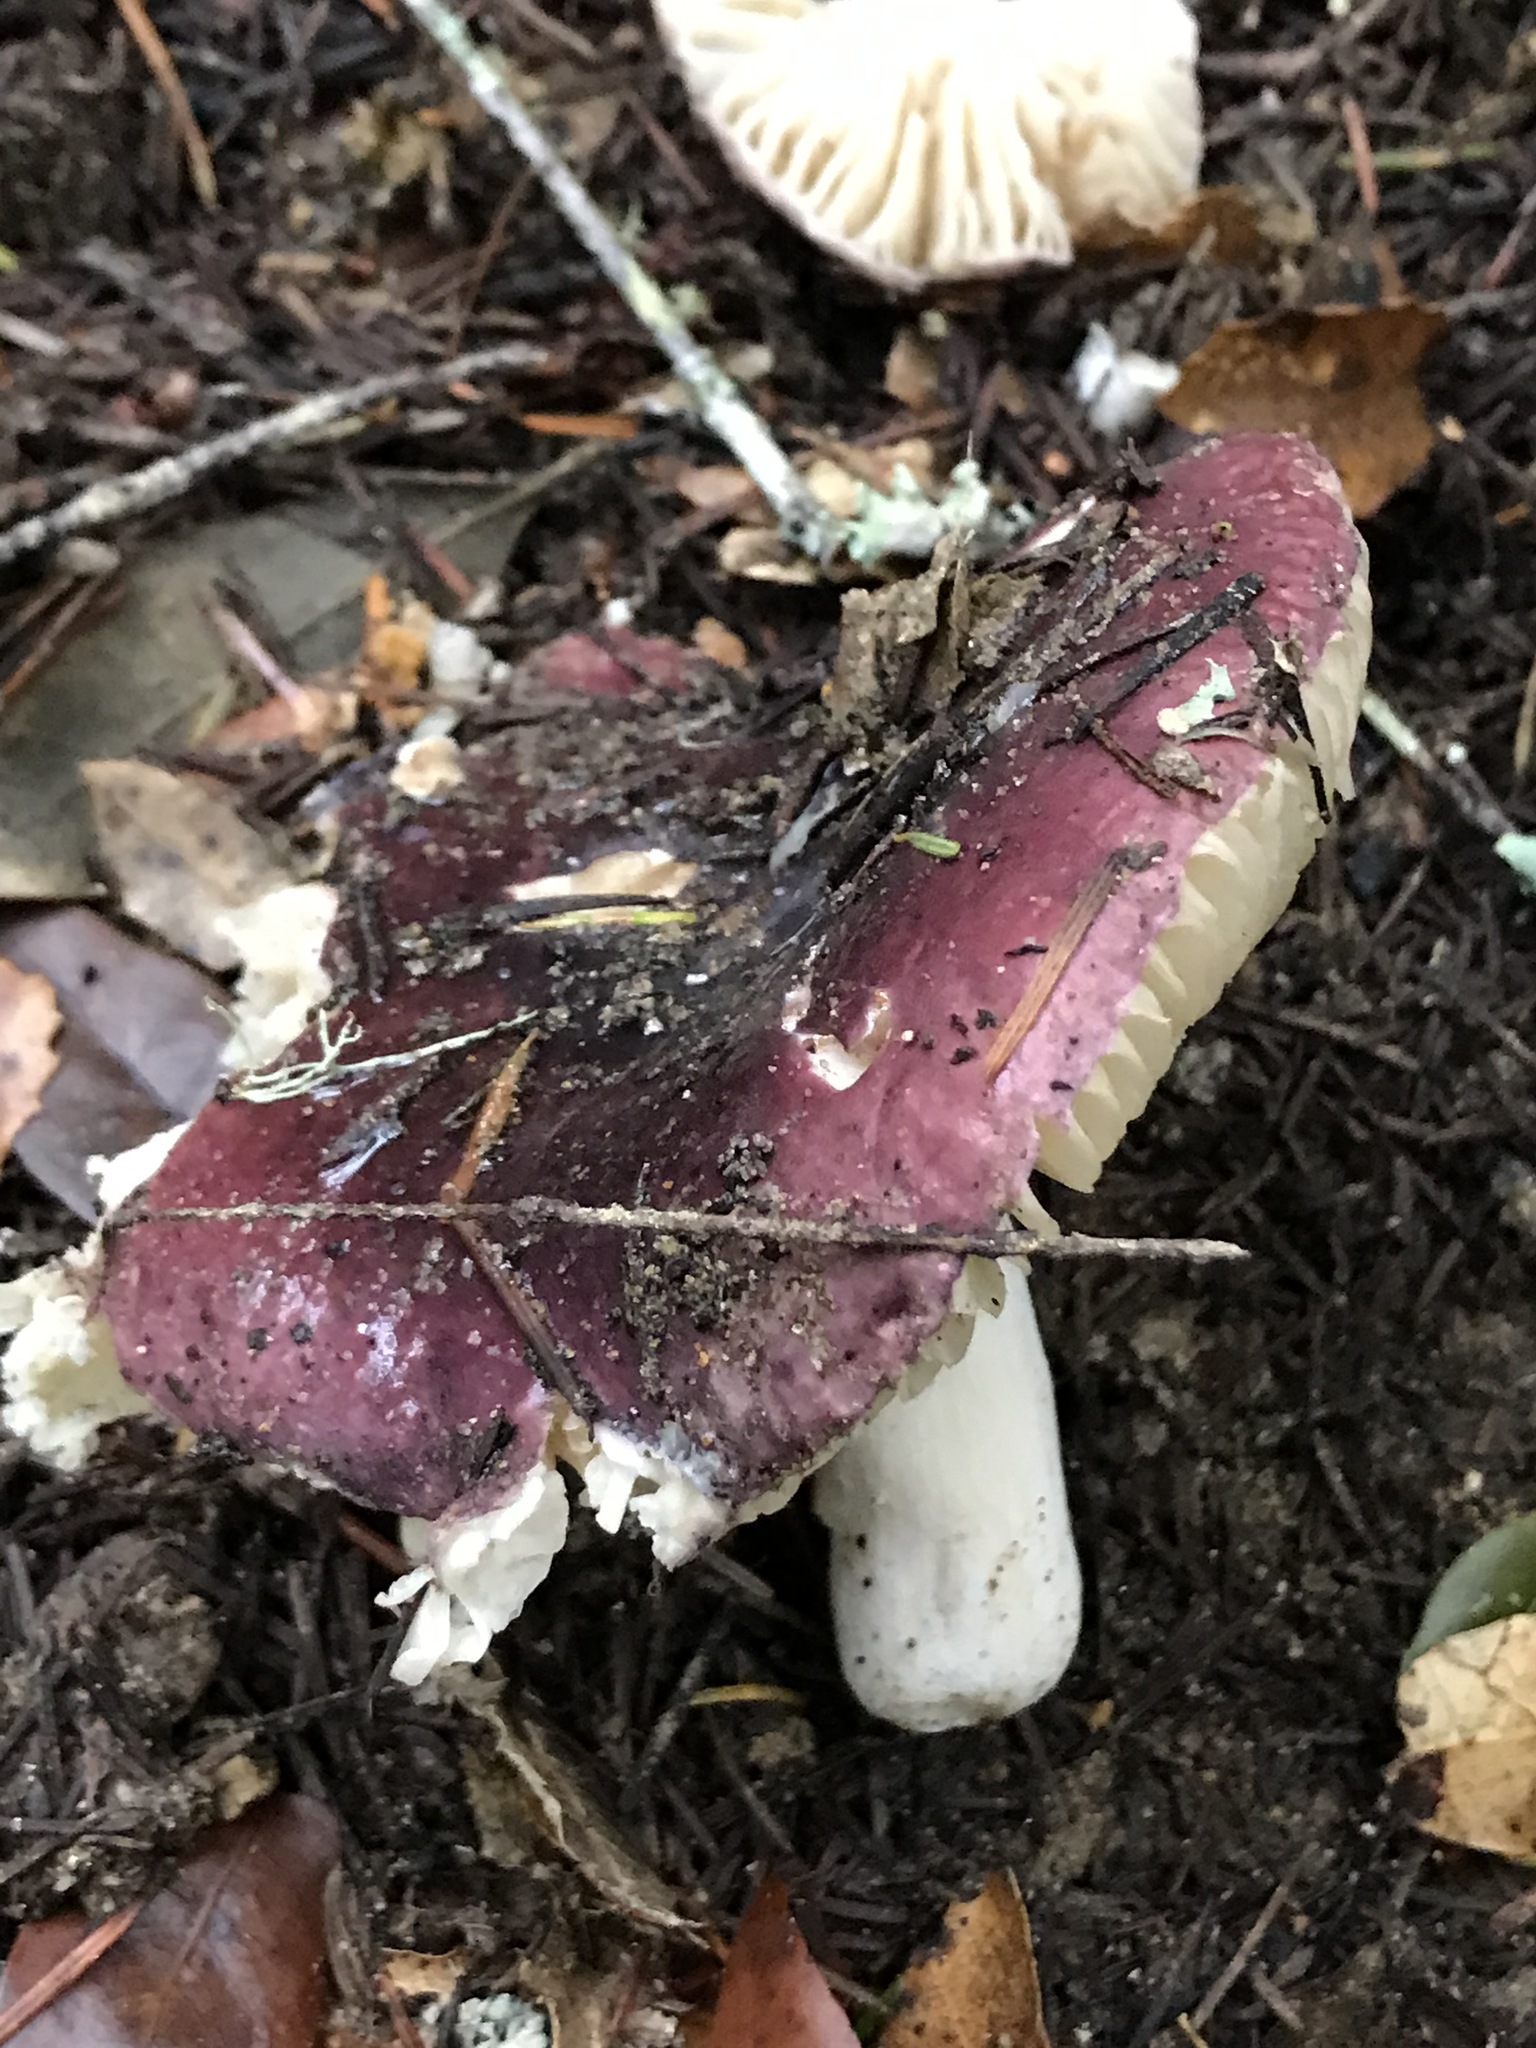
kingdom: Fungi
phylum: Basidiomycota
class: Agaricomycetes
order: Russulales
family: Russulaceae
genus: Russula
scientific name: Russula xerampelina
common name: Crab brittlegill
